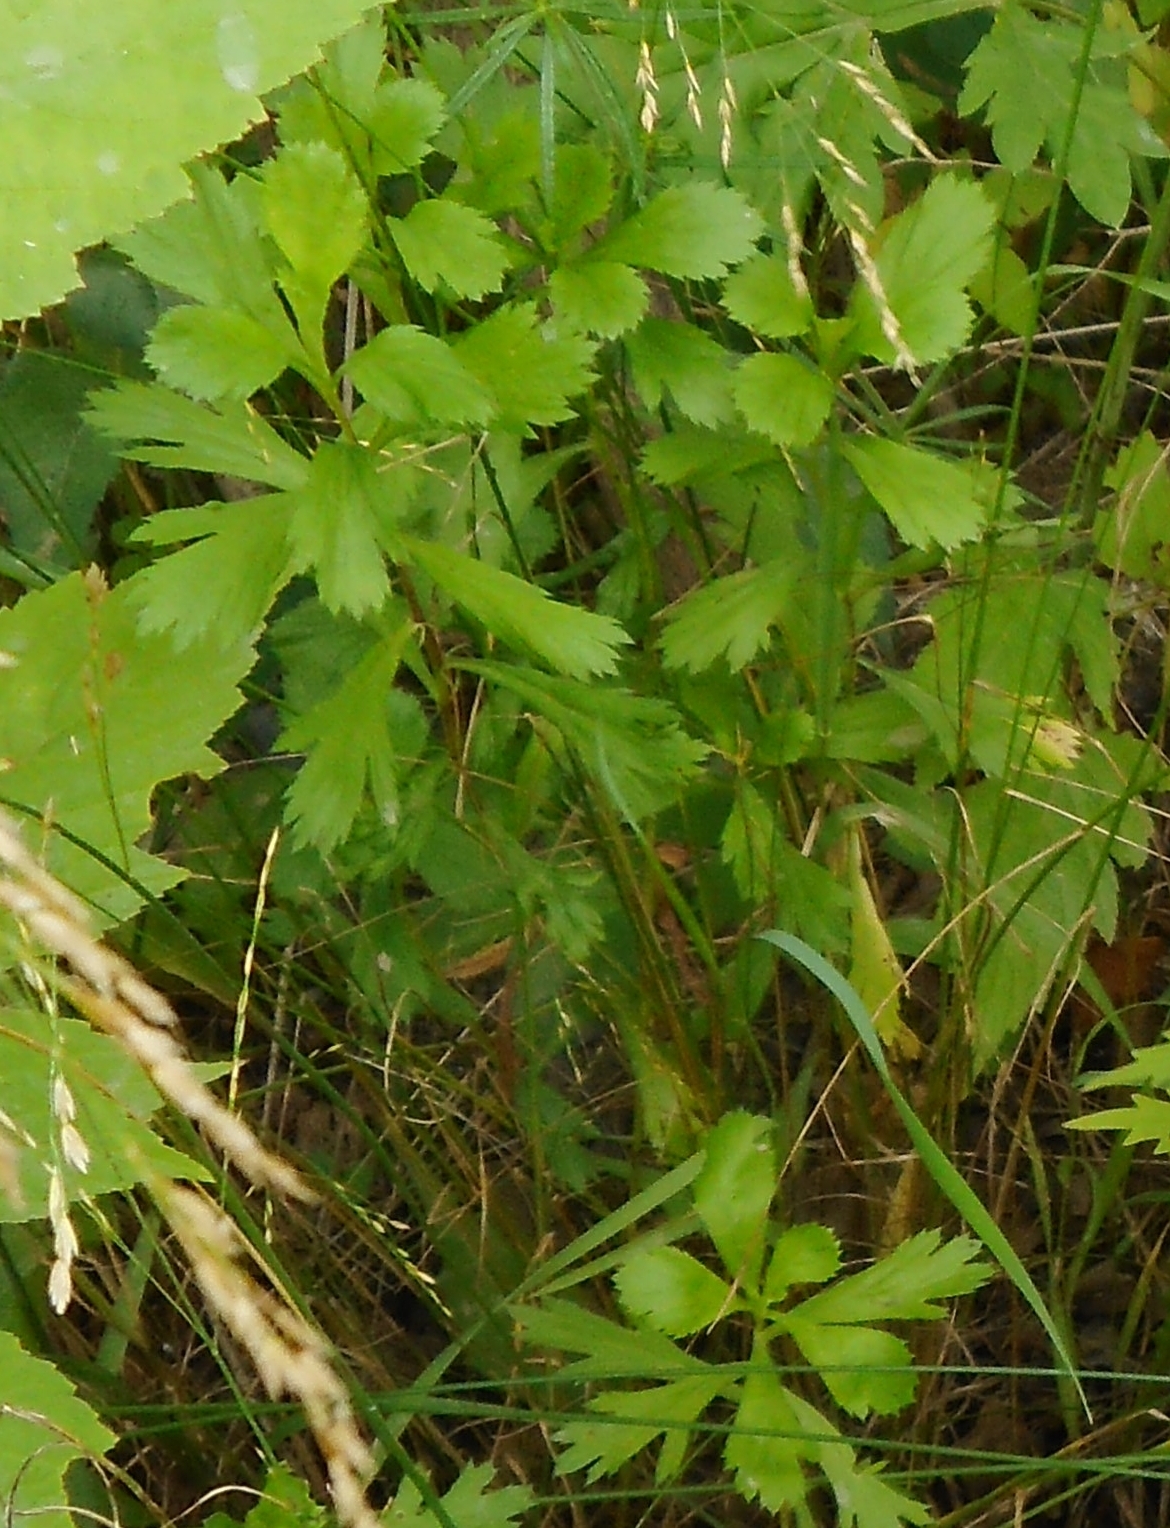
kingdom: Plantae
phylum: Tracheophyta
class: Magnoliopsida
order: Asterales
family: Asteraceae
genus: Artemisia
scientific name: Artemisia manshurica
